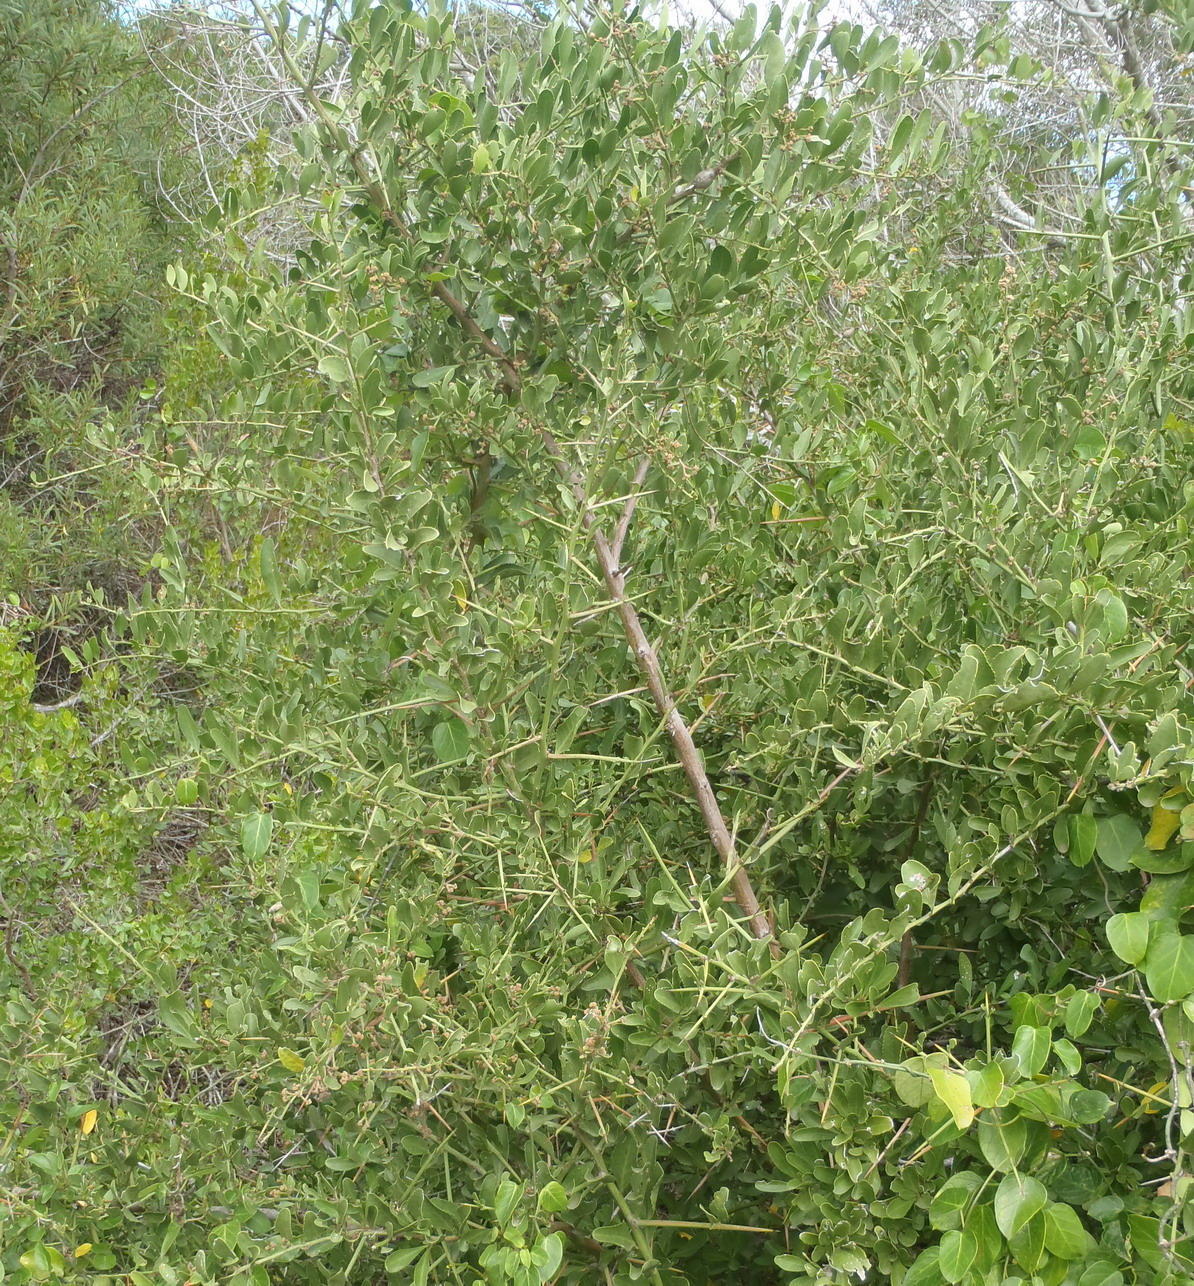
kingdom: Plantae
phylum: Tracheophyta
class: Magnoliopsida
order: Celastrales
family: Celastraceae
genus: Gymnosporia
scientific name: Gymnosporia buxifolia
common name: Common spike-thorn
